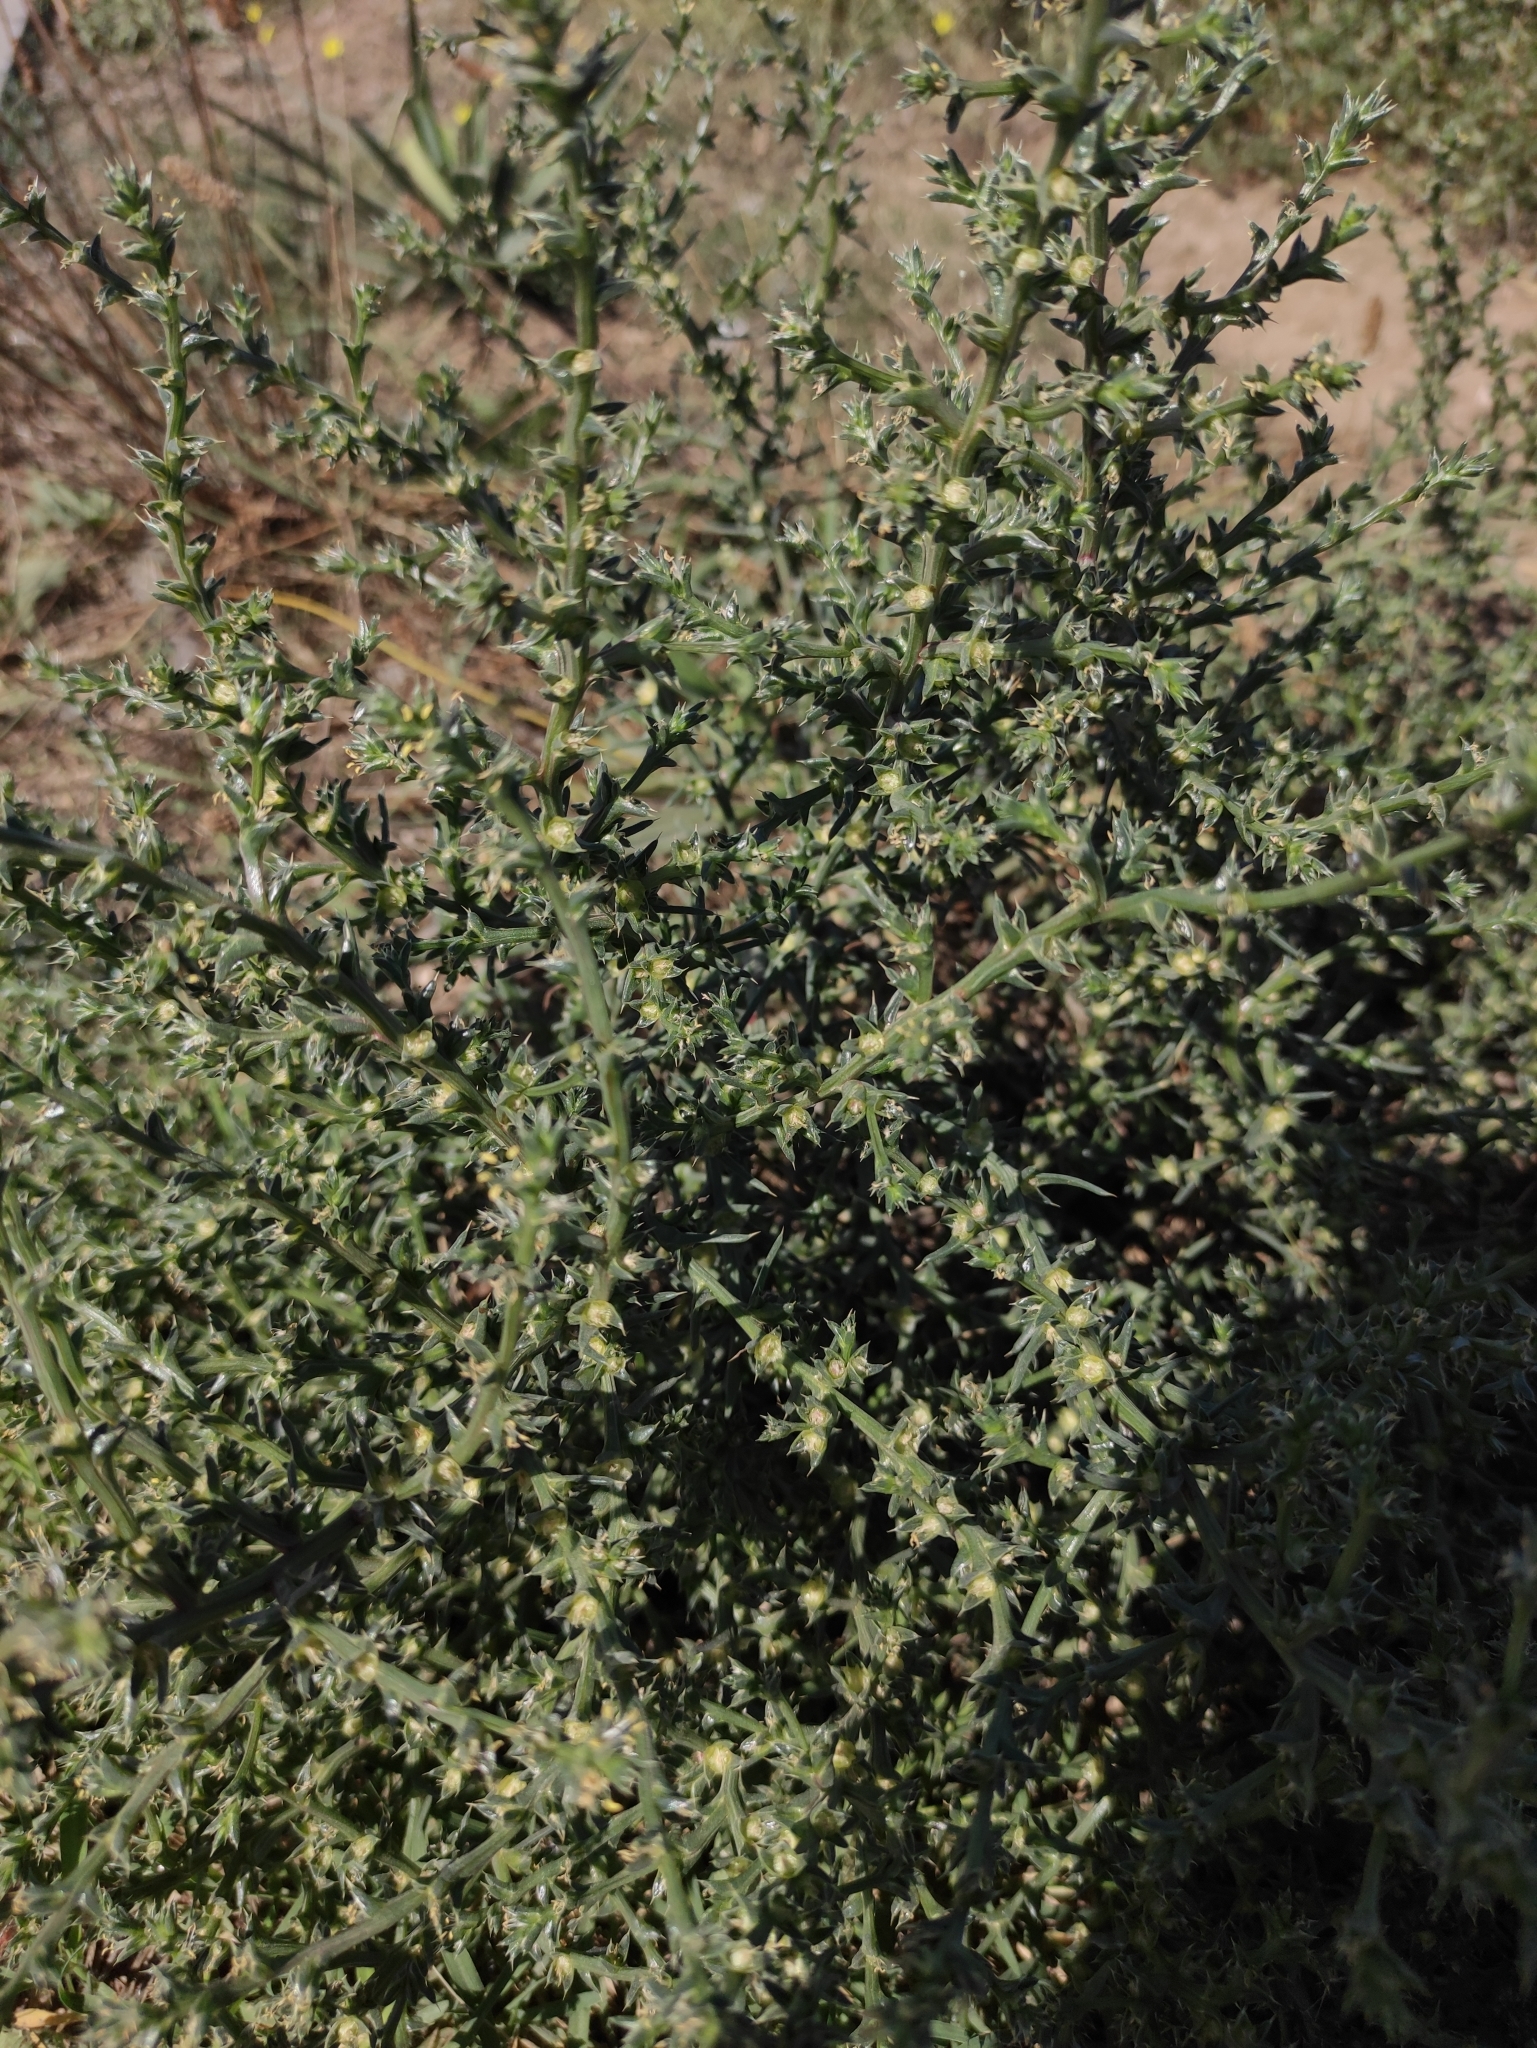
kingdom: Plantae
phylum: Tracheophyta
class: Magnoliopsida
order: Caryophyllales
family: Amaranthaceae
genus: Salsola
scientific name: Salsola tragus
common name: Prickly russian thistle
